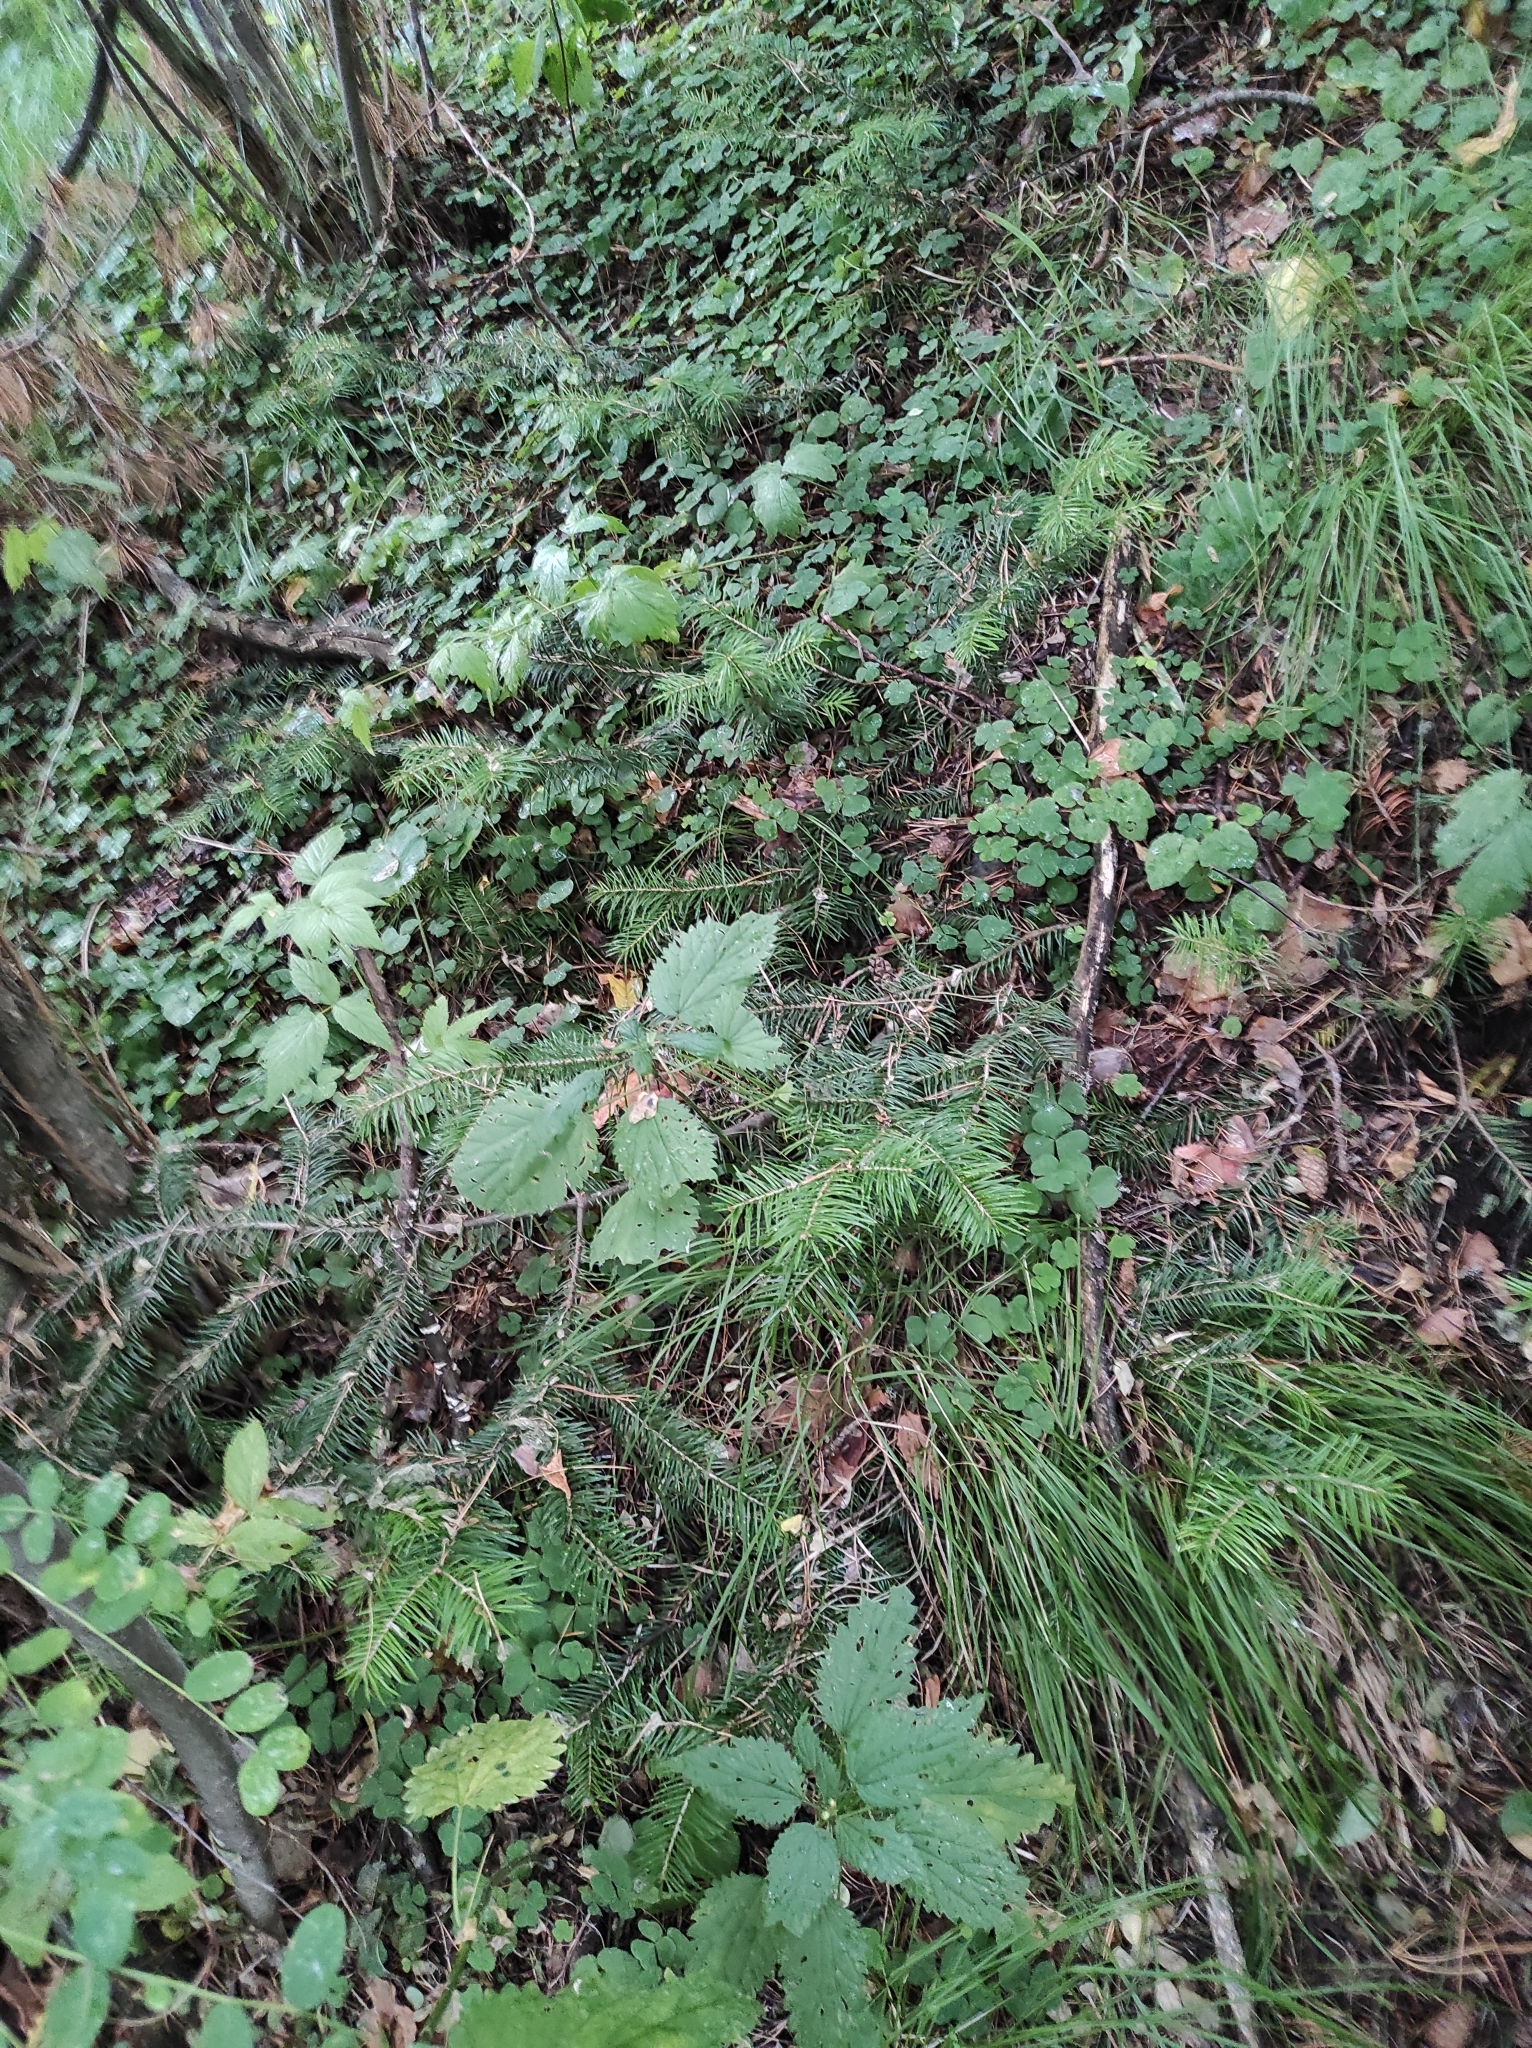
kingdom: Plantae
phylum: Tracheophyta
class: Pinopsida
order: Pinales
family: Pinaceae
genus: Abies
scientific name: Abies sibirica
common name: Siberian fir
